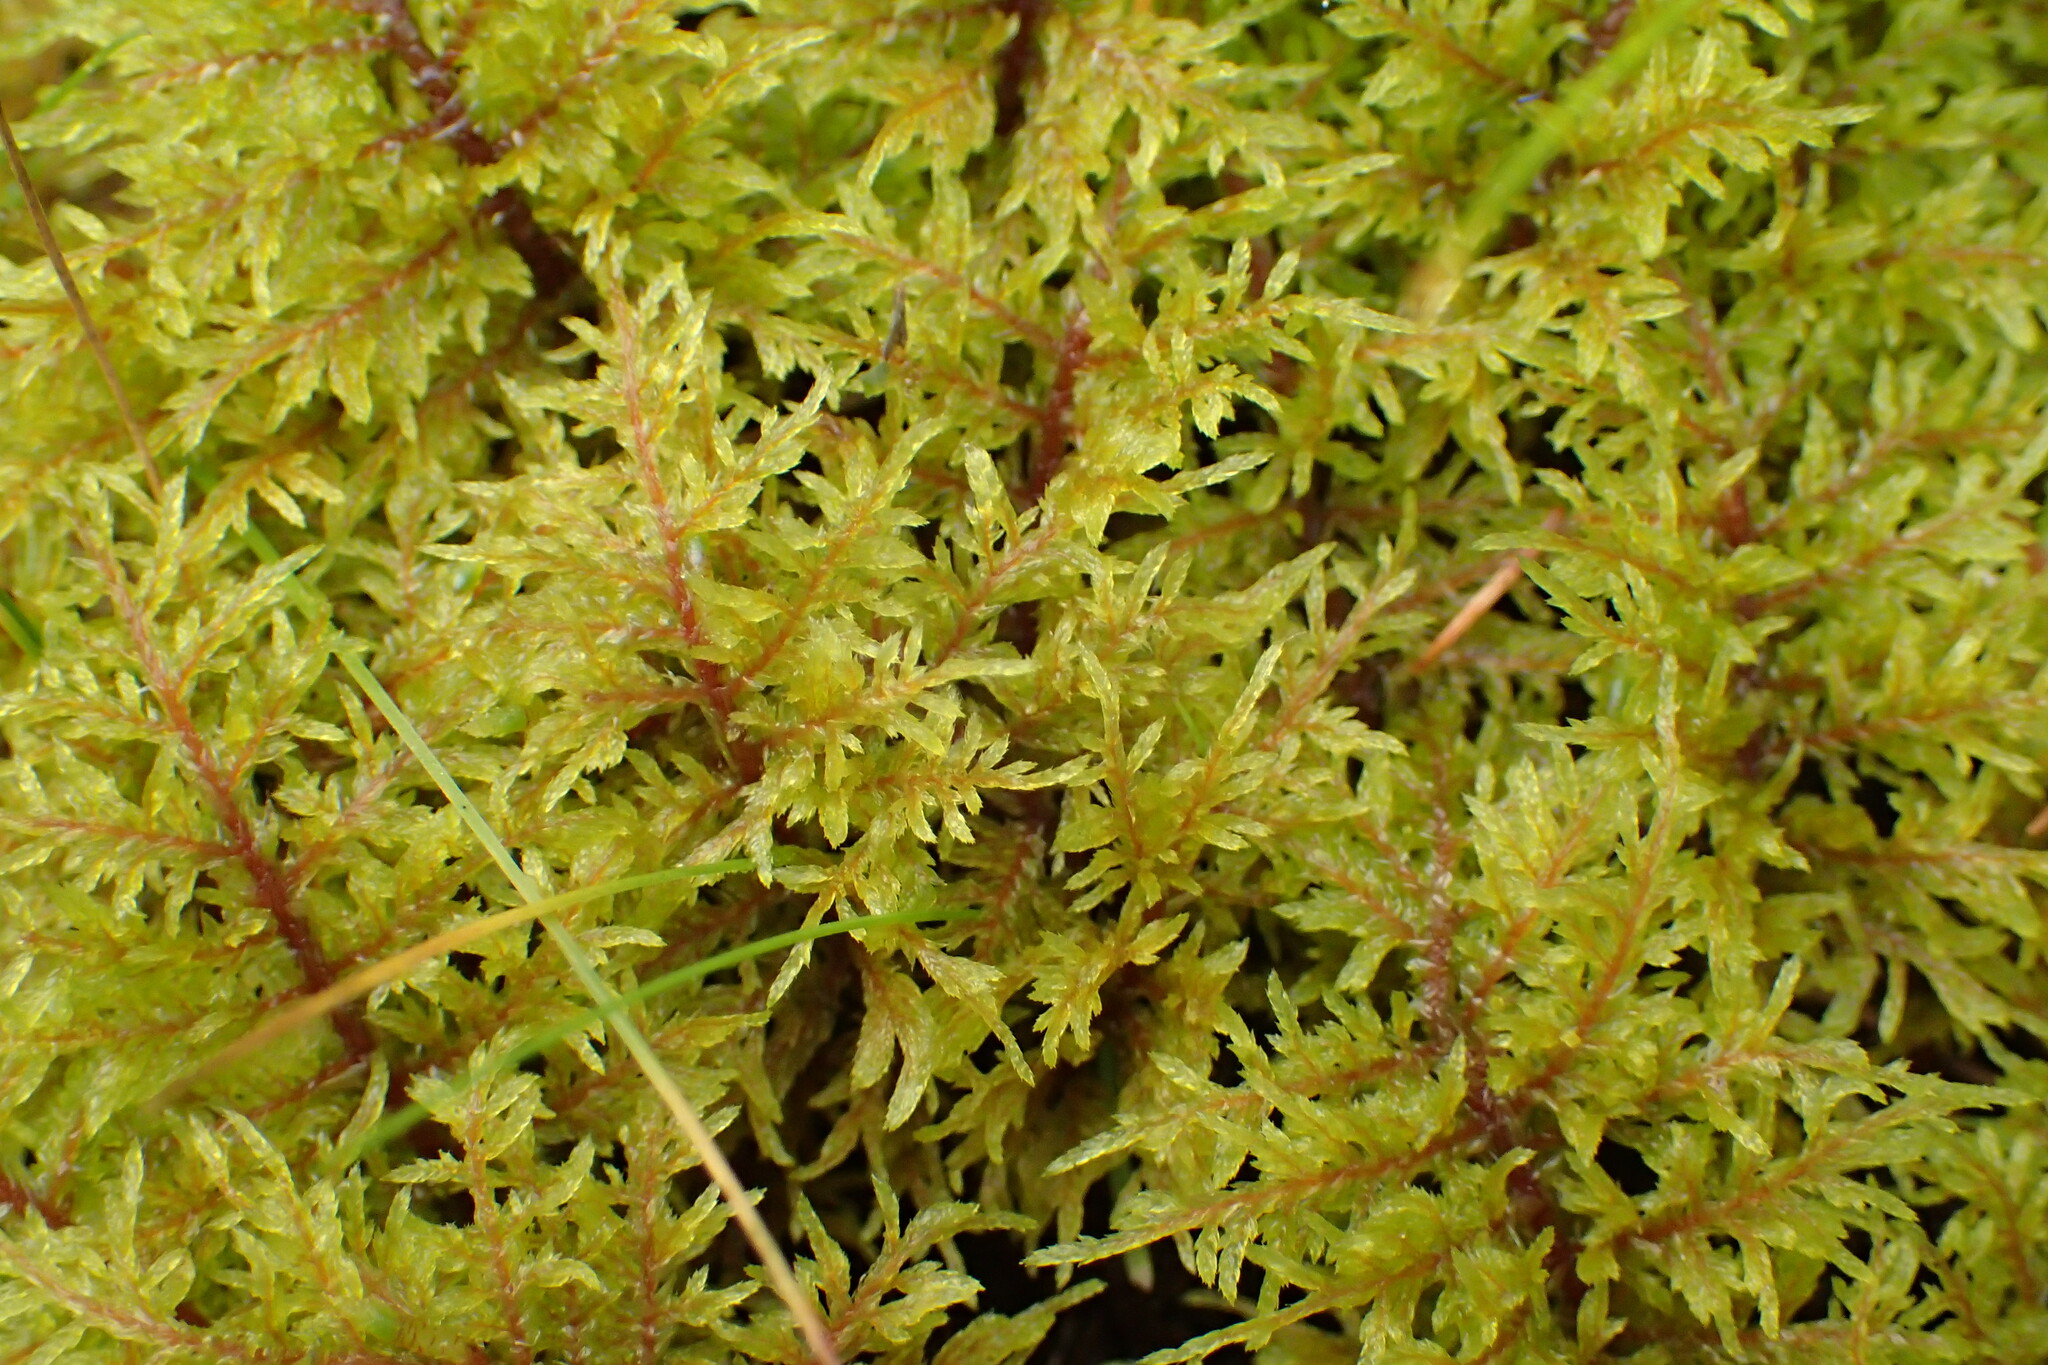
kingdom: Plantae
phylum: Bryophyta
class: Bryopsida
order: Hypnales
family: Hylocomiaceae
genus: Hylocomium
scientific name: Hylocomium splendens
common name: Stairstep moss
